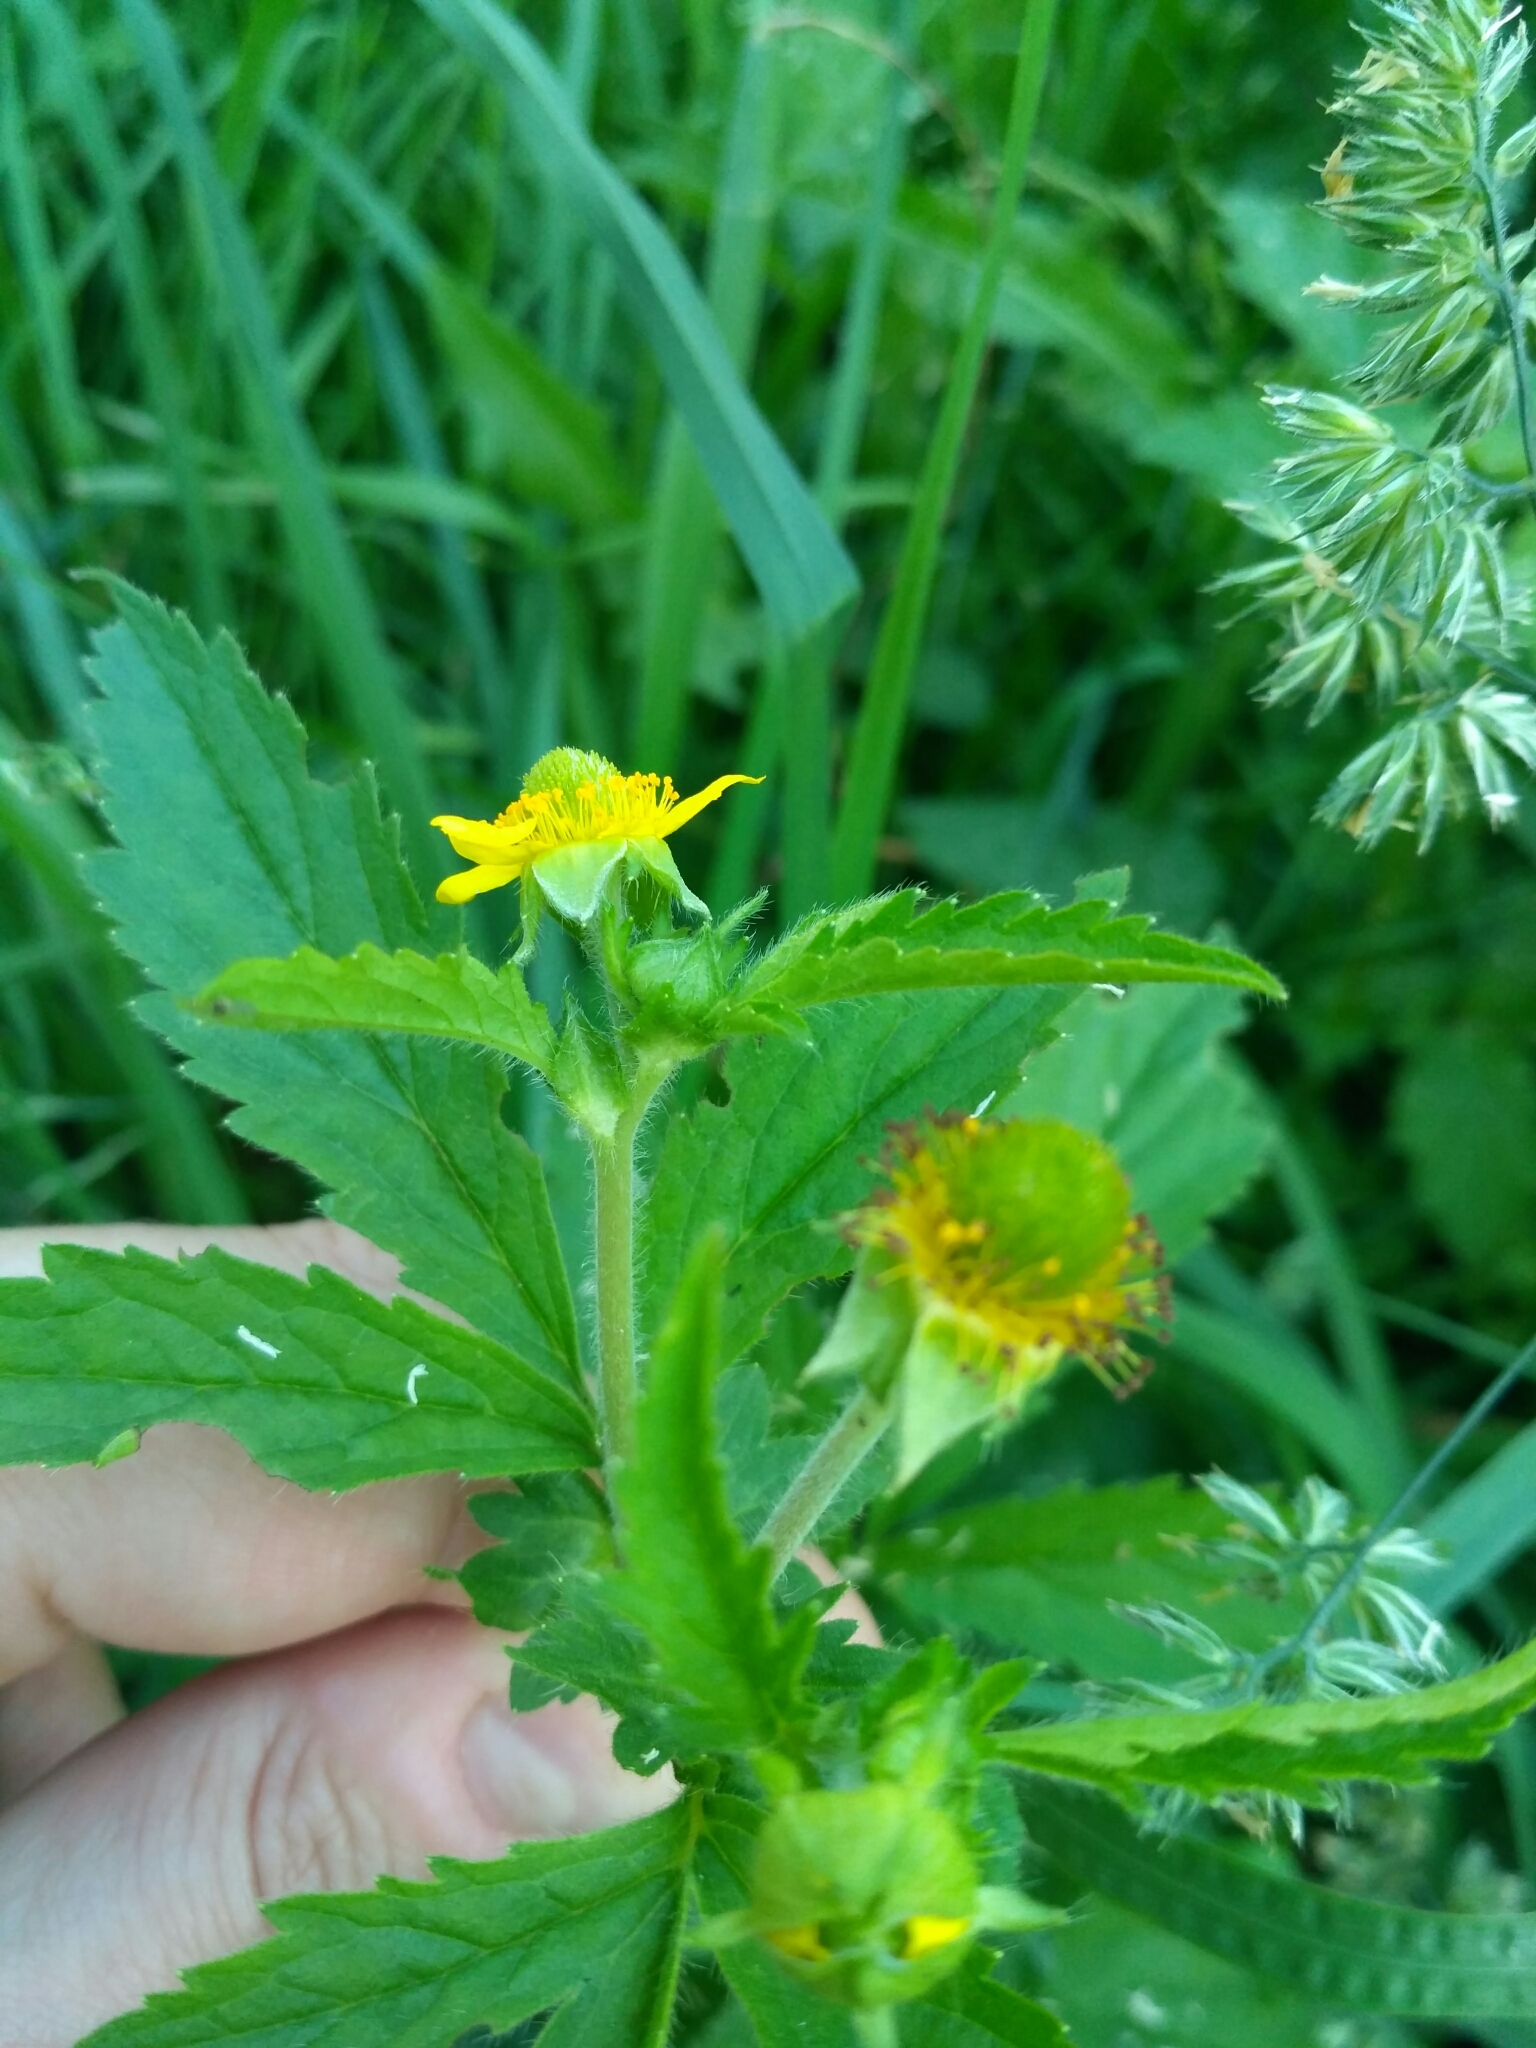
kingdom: Plantae
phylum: Tracheophyta
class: Magnoliopsida
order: Rosales
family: Rosaceae
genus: Geum
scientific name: Geum aleppicum
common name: Yellow avens
